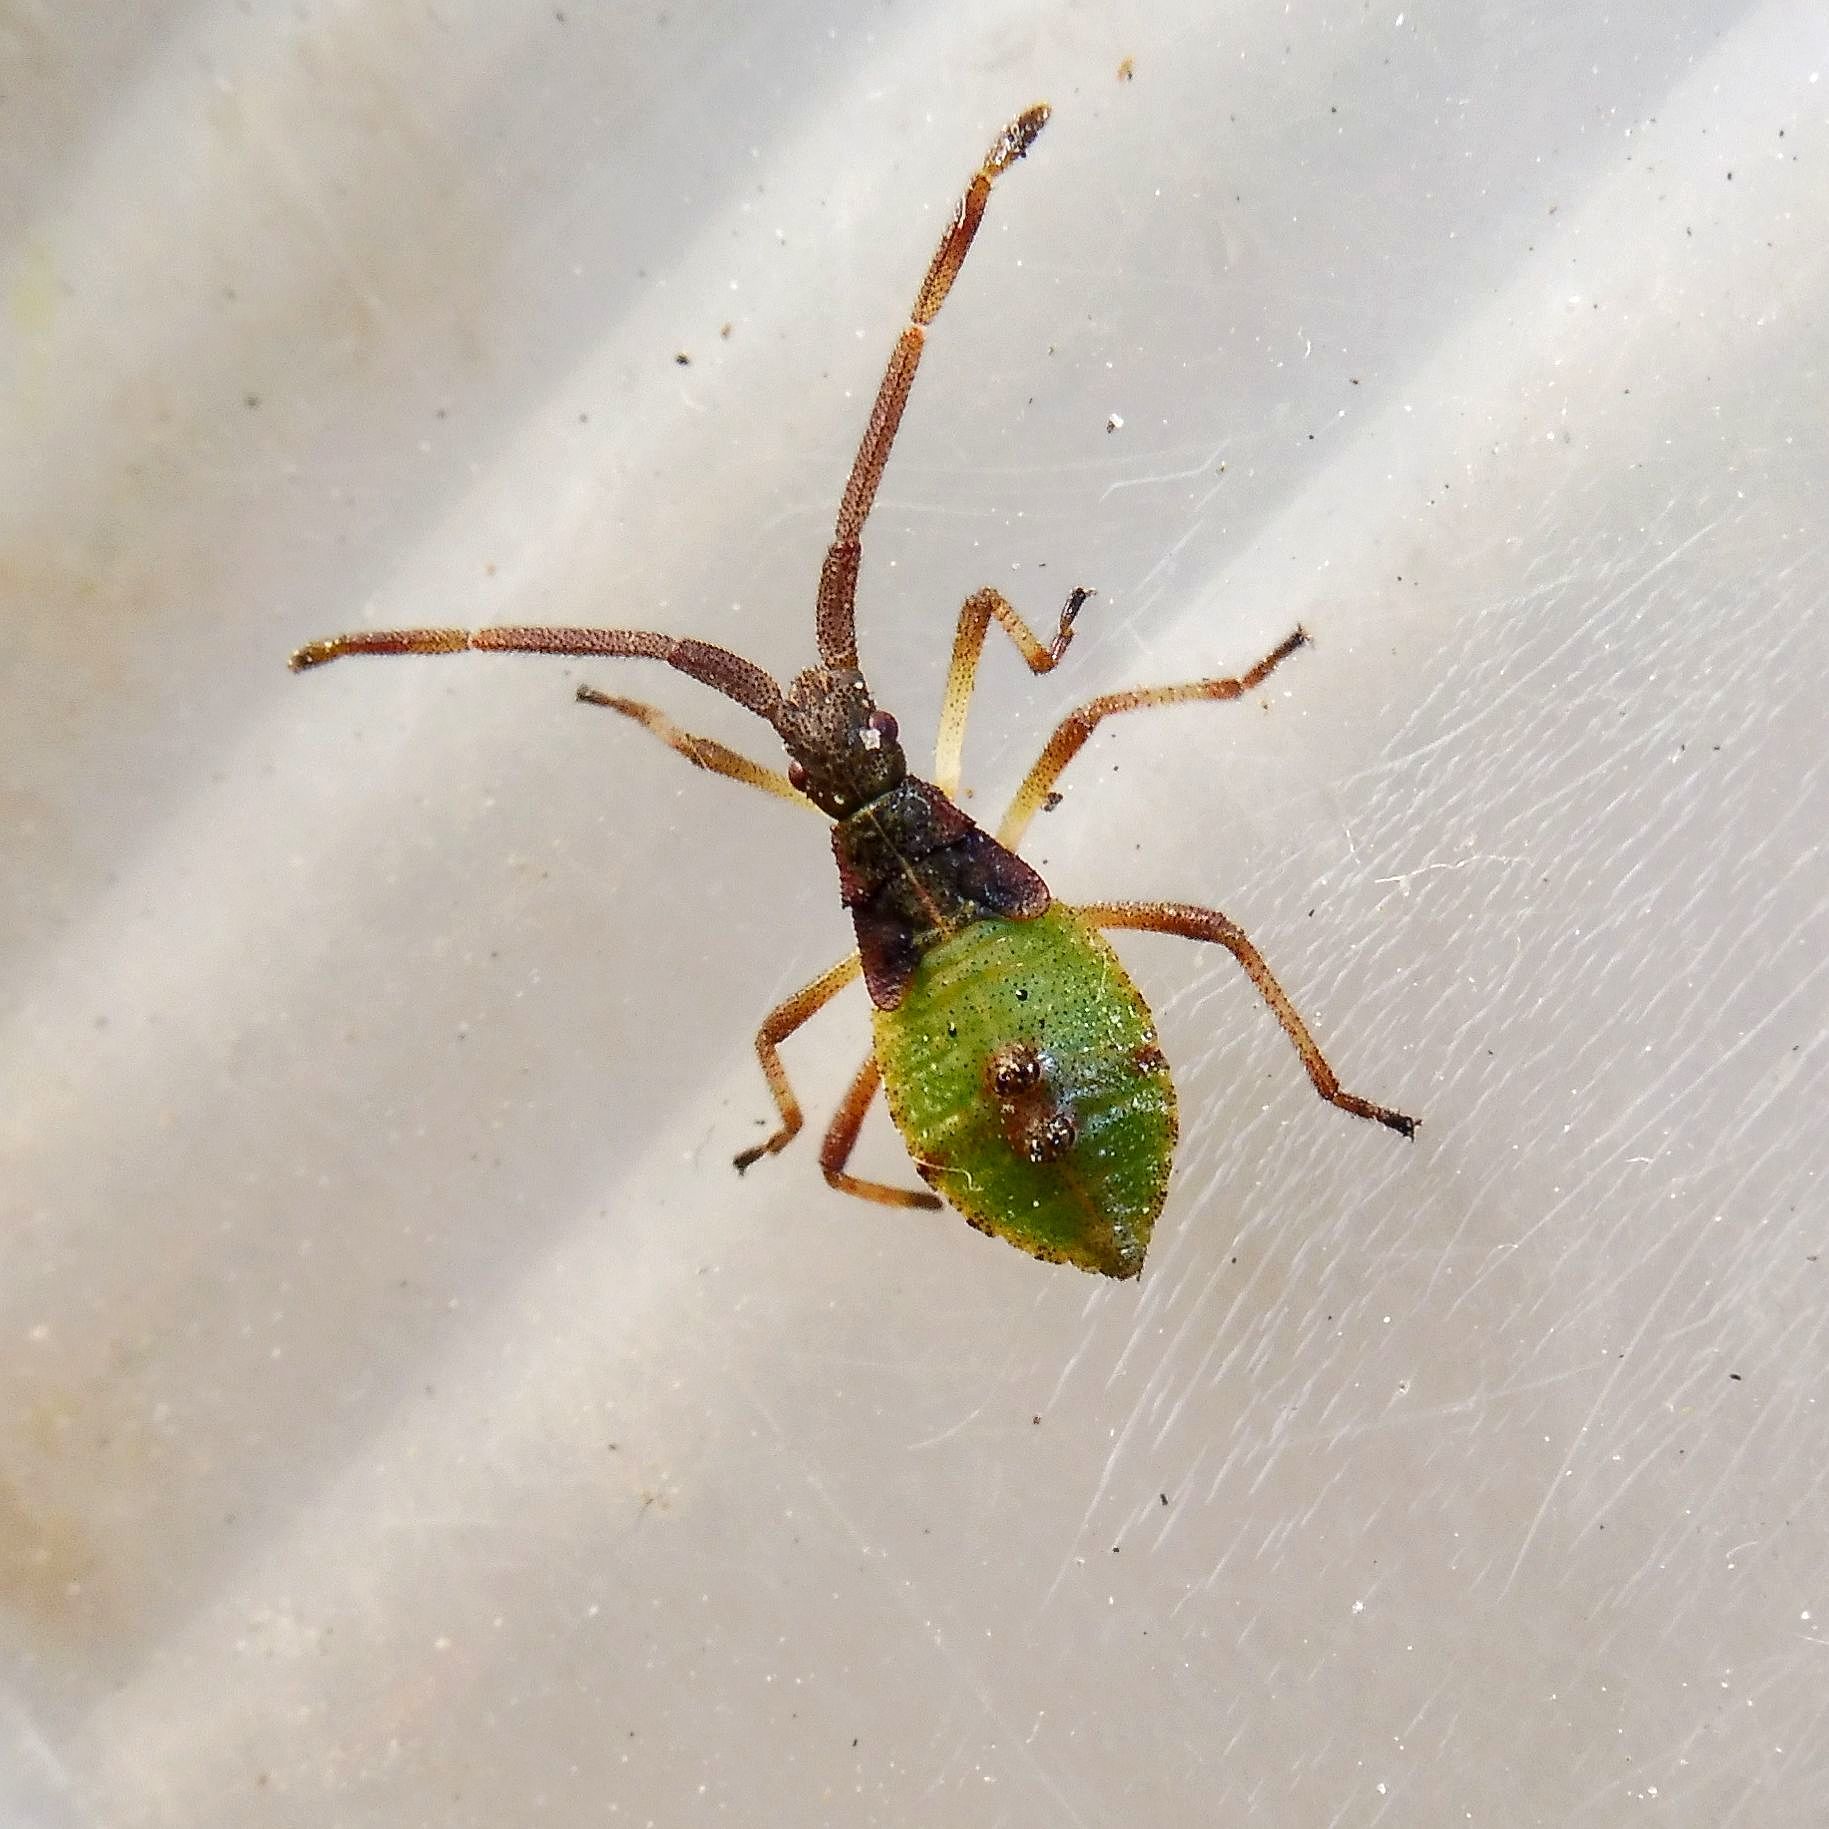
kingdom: Animalia
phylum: Arthropoda
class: Insecta
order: Hemiptera
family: Coreidae
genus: Gonocerus
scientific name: Gonocerus acuteangulatus
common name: Box bug
